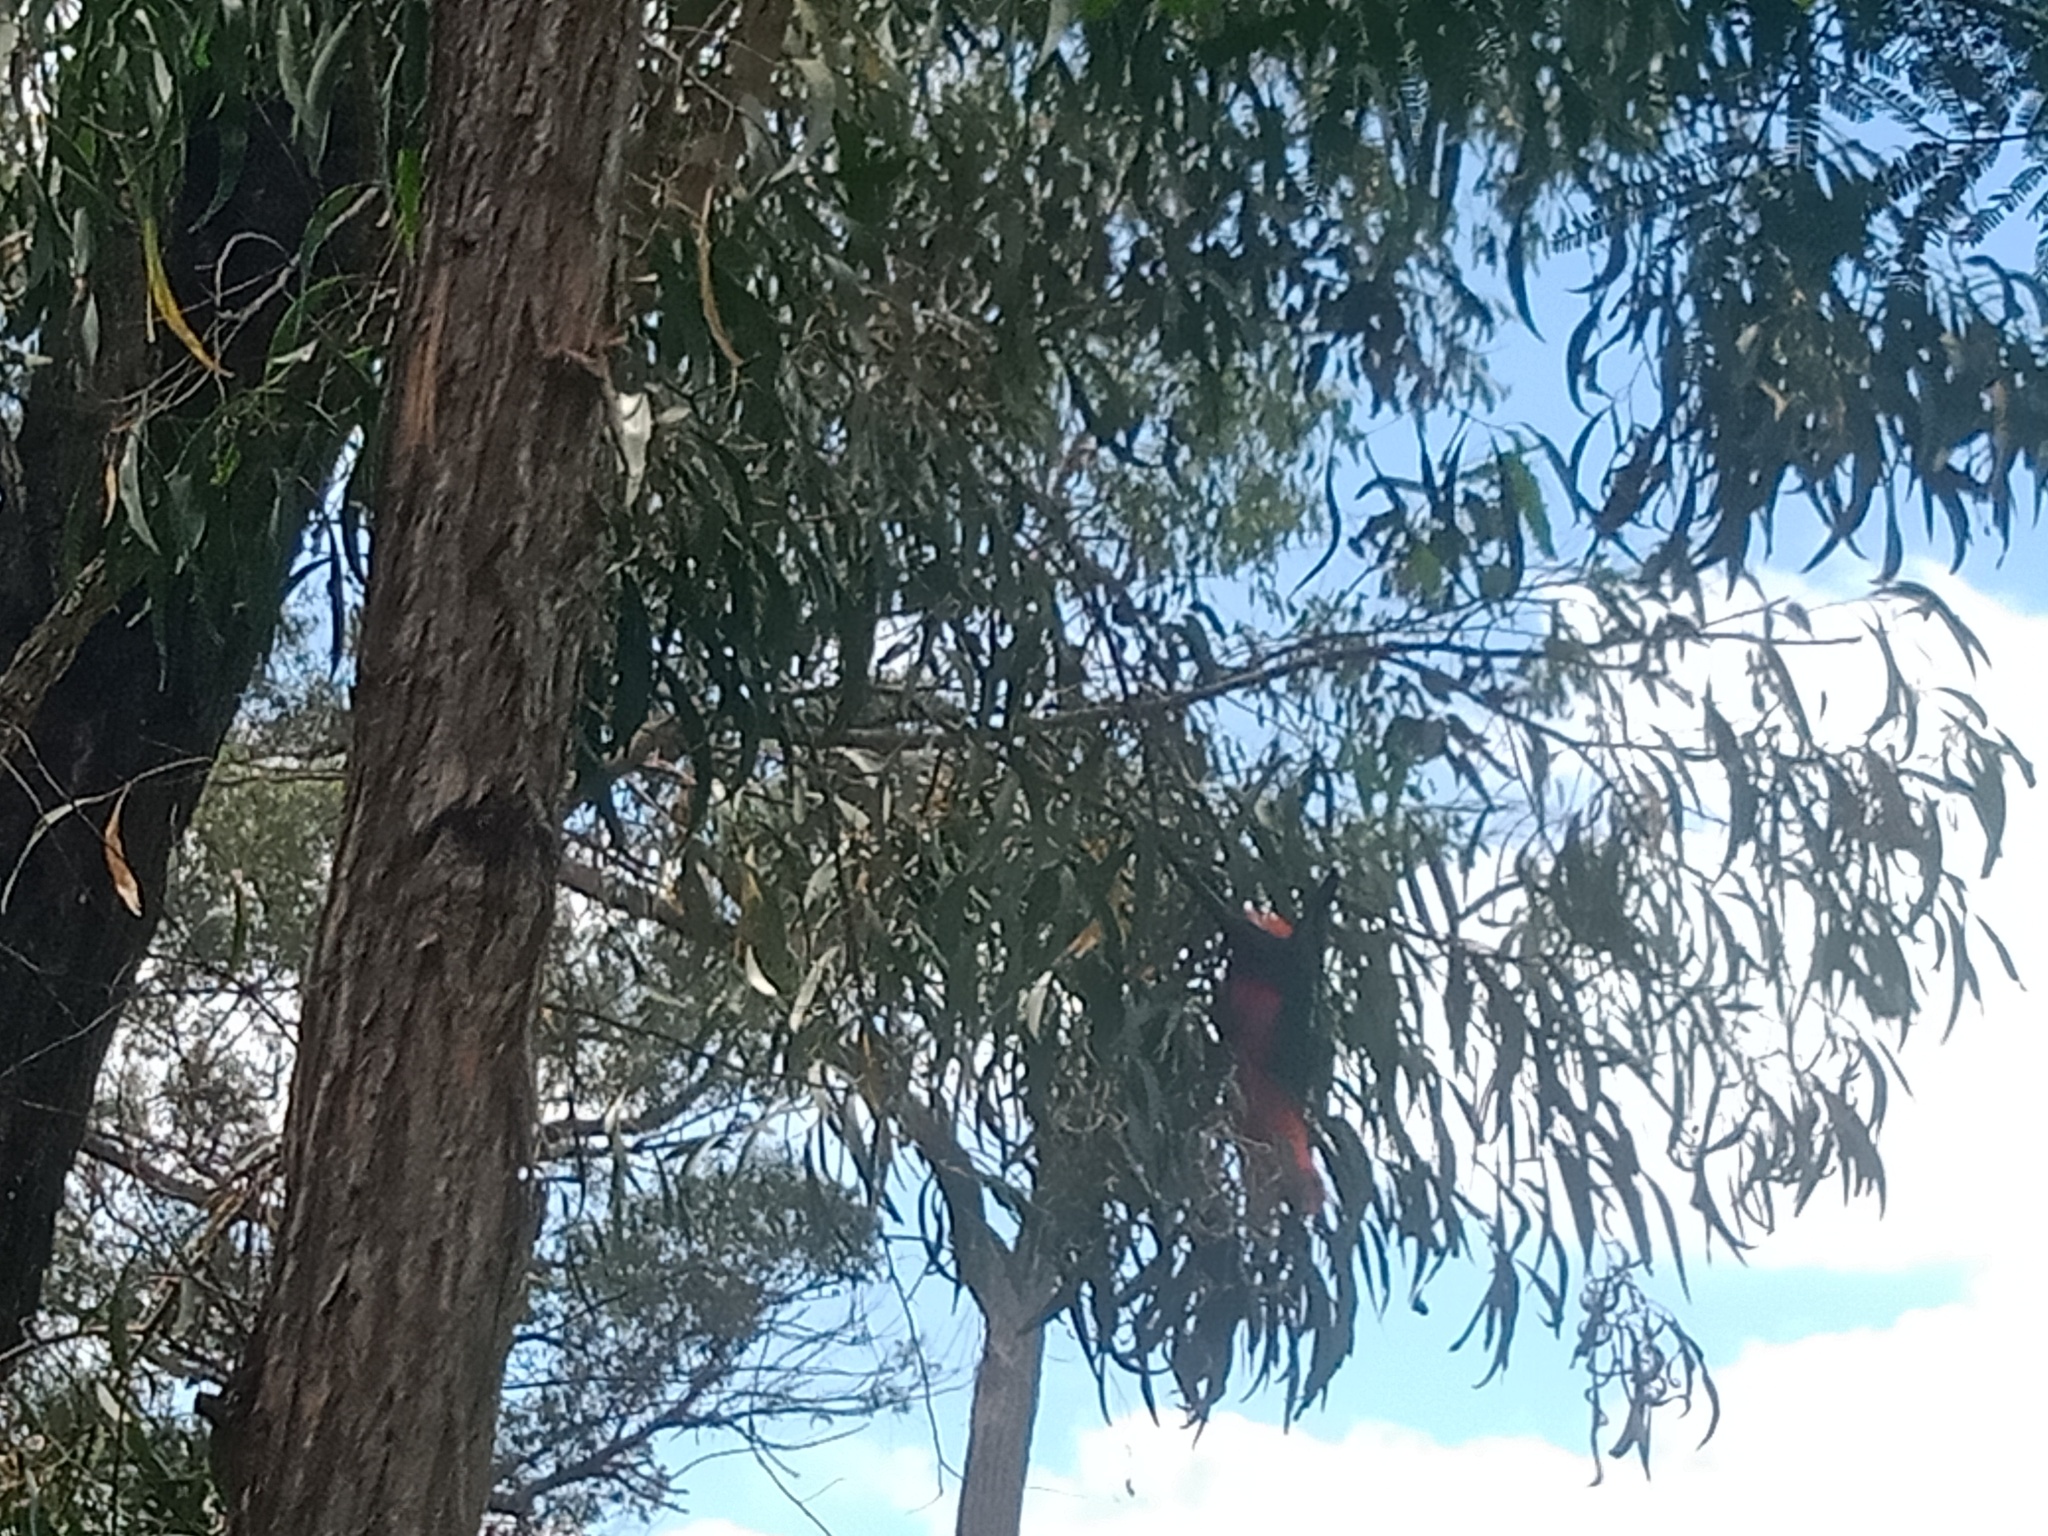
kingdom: Animalia
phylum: Chordata
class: Aves
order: Psittaciformes
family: Psittacidae
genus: Alisterus
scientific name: Alisterus scapularis
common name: Australian king parrot
